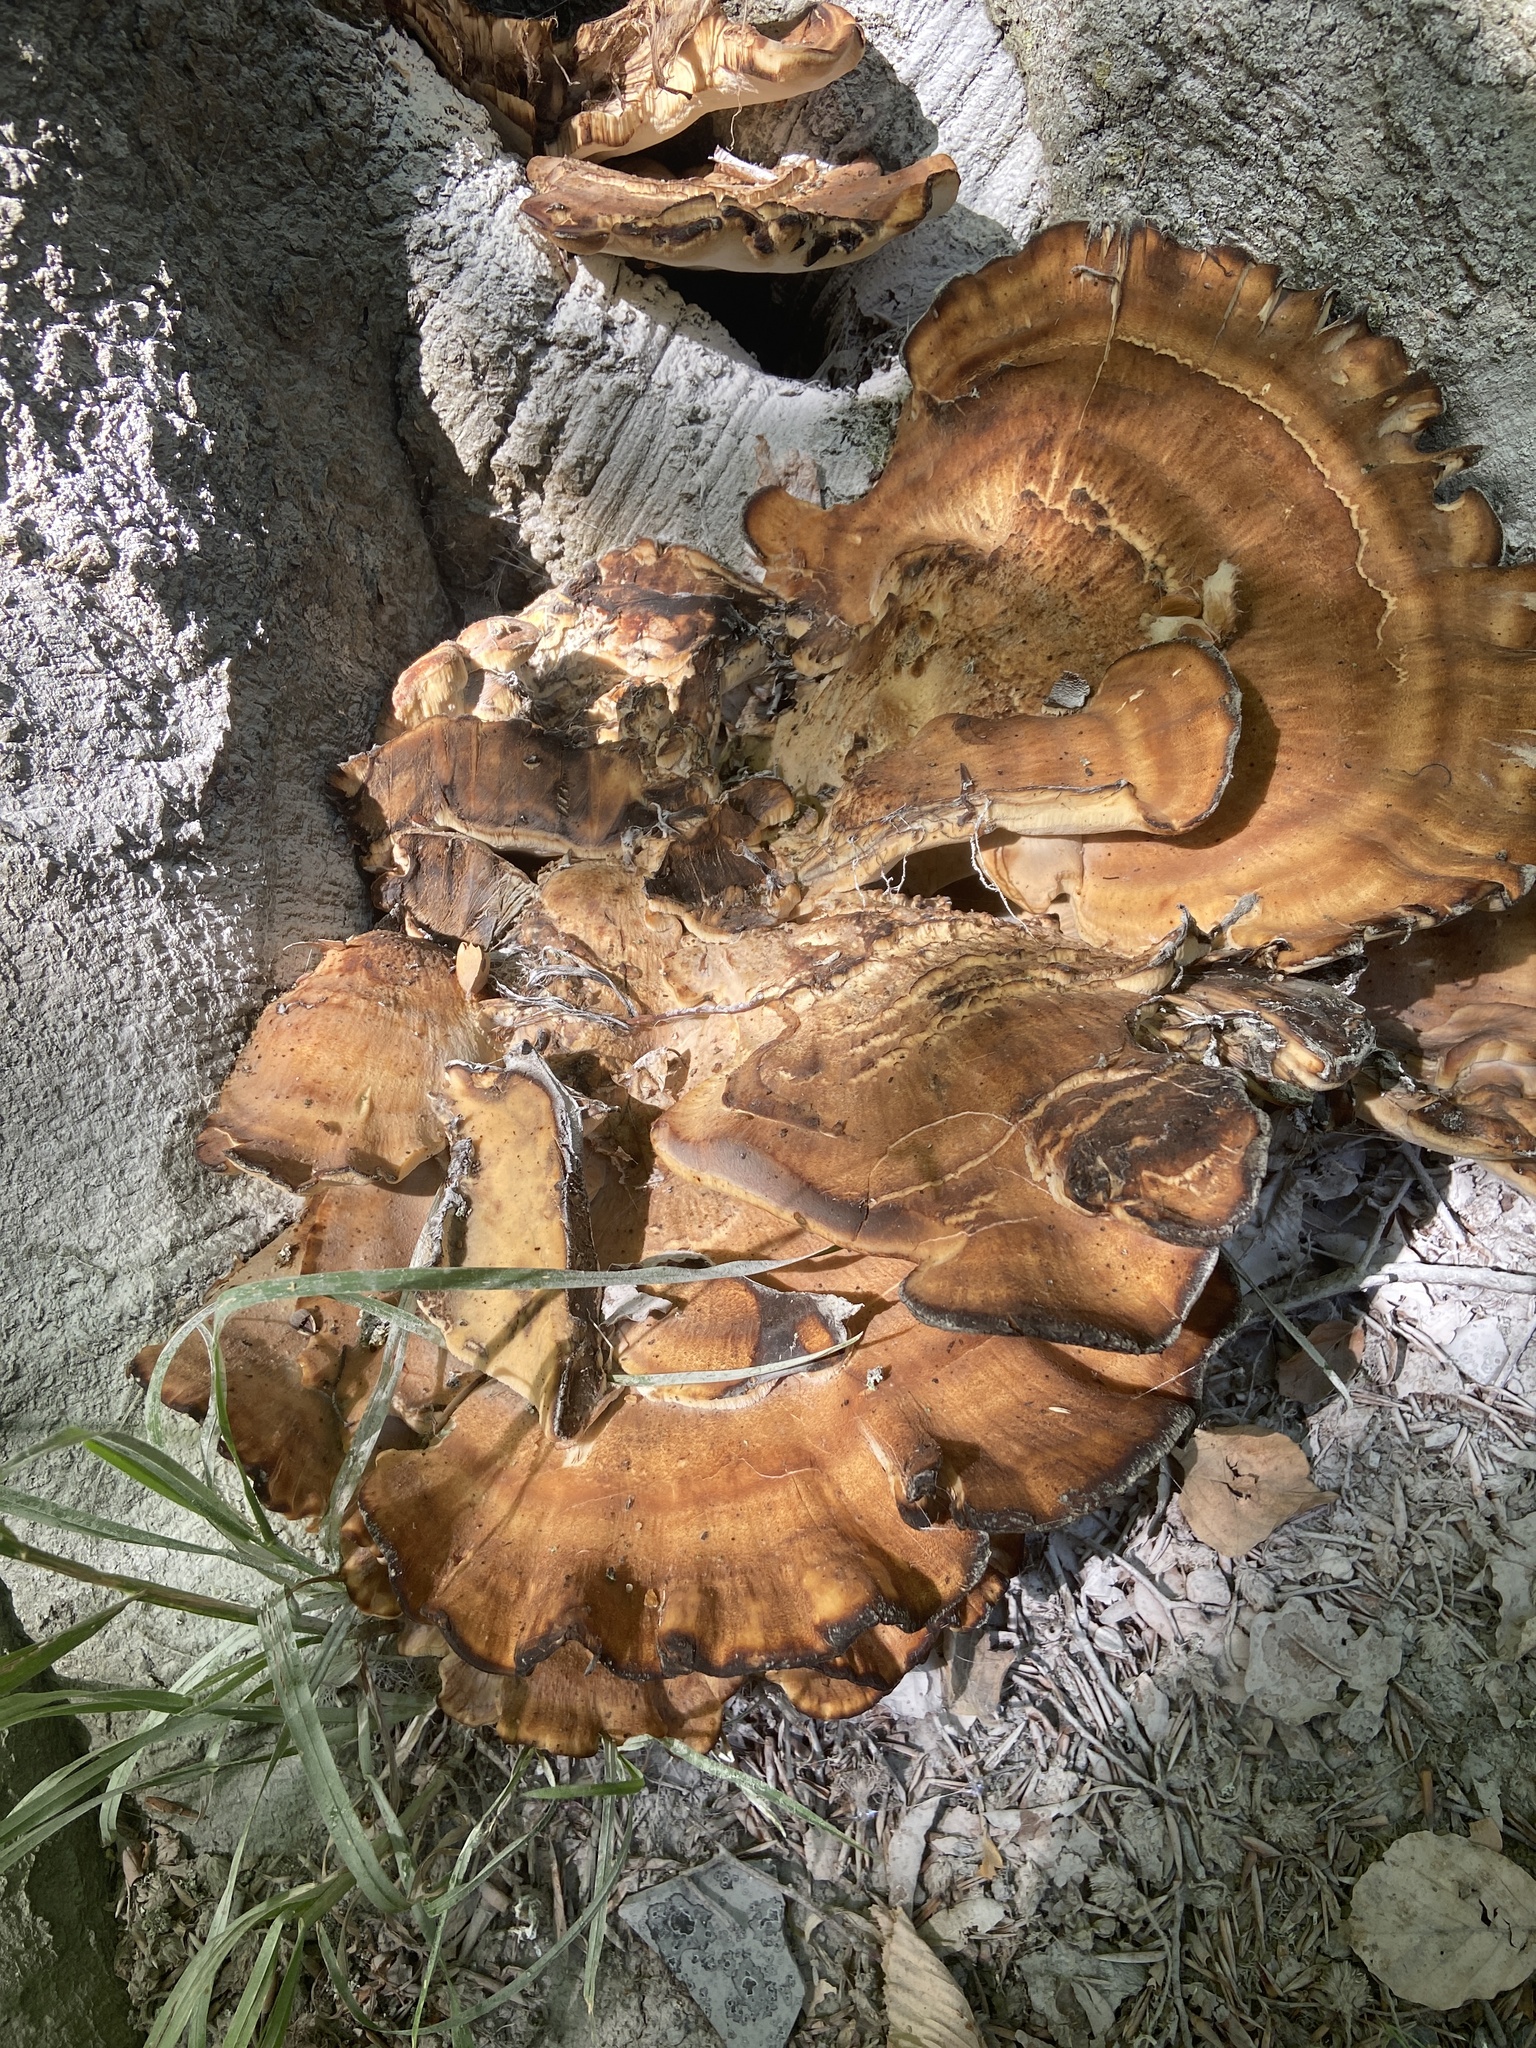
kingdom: Fungi
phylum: Basidiomycota
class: Agaricomycetes
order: Polyporales
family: Meripilaceae
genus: Meripilus
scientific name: Meripilus giganteus
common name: Giant polypore
